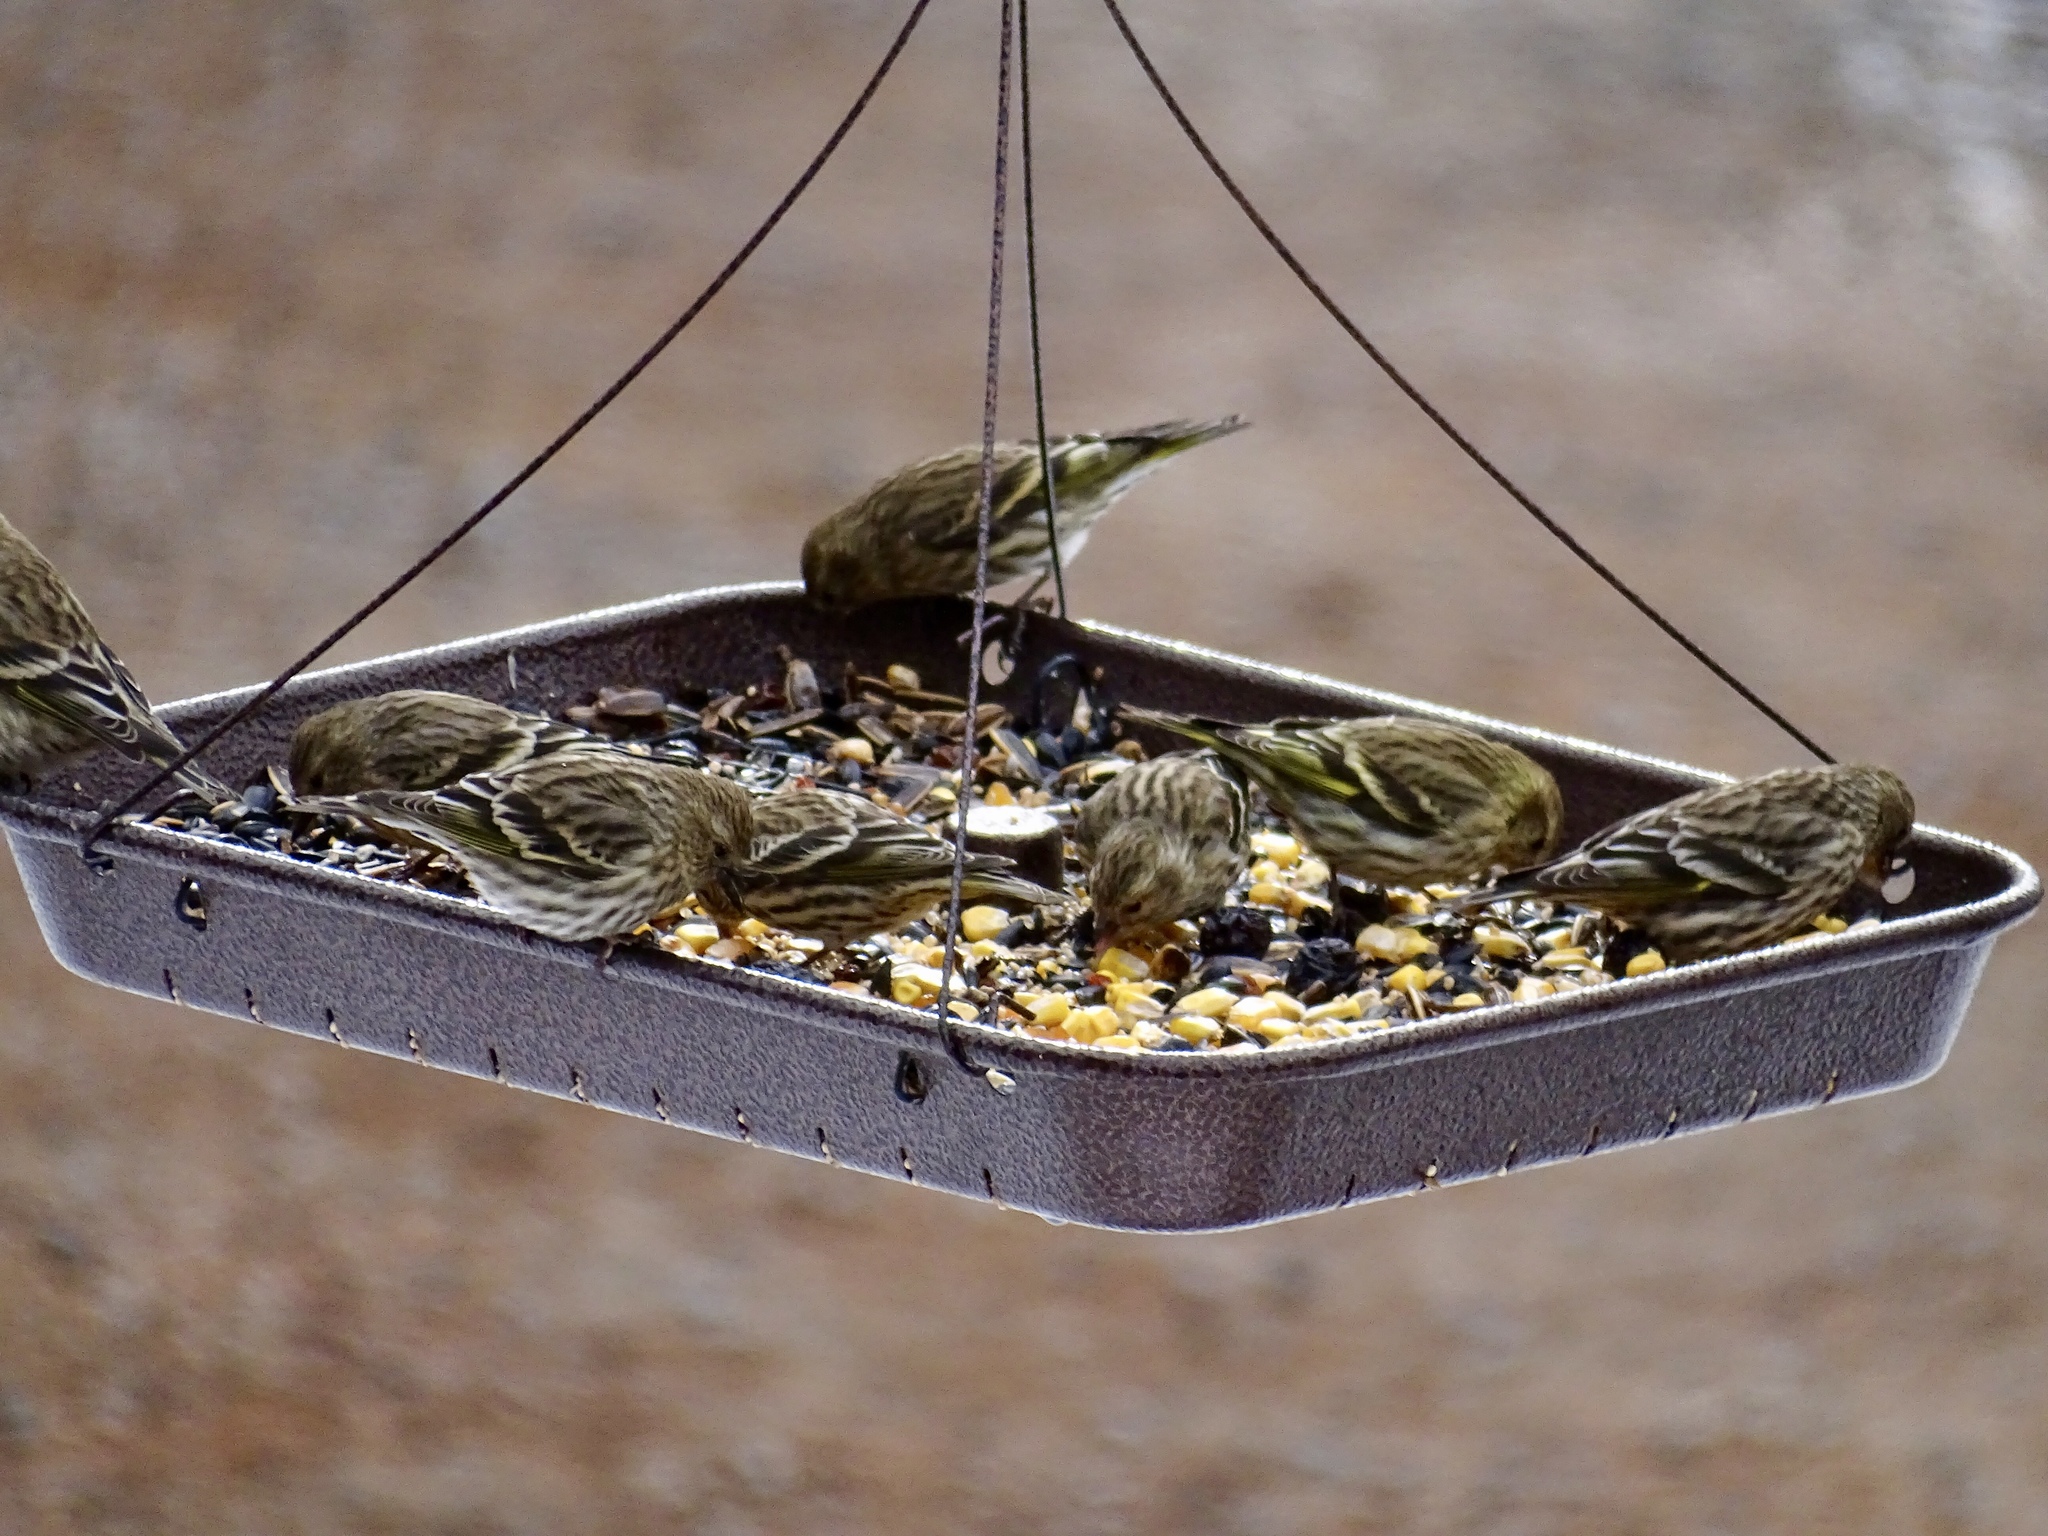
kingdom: Animalia
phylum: Chordata
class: Aves
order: Passeriformes
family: Fringillidae
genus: Spinus
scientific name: Spinus pinus
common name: Pine siskin
